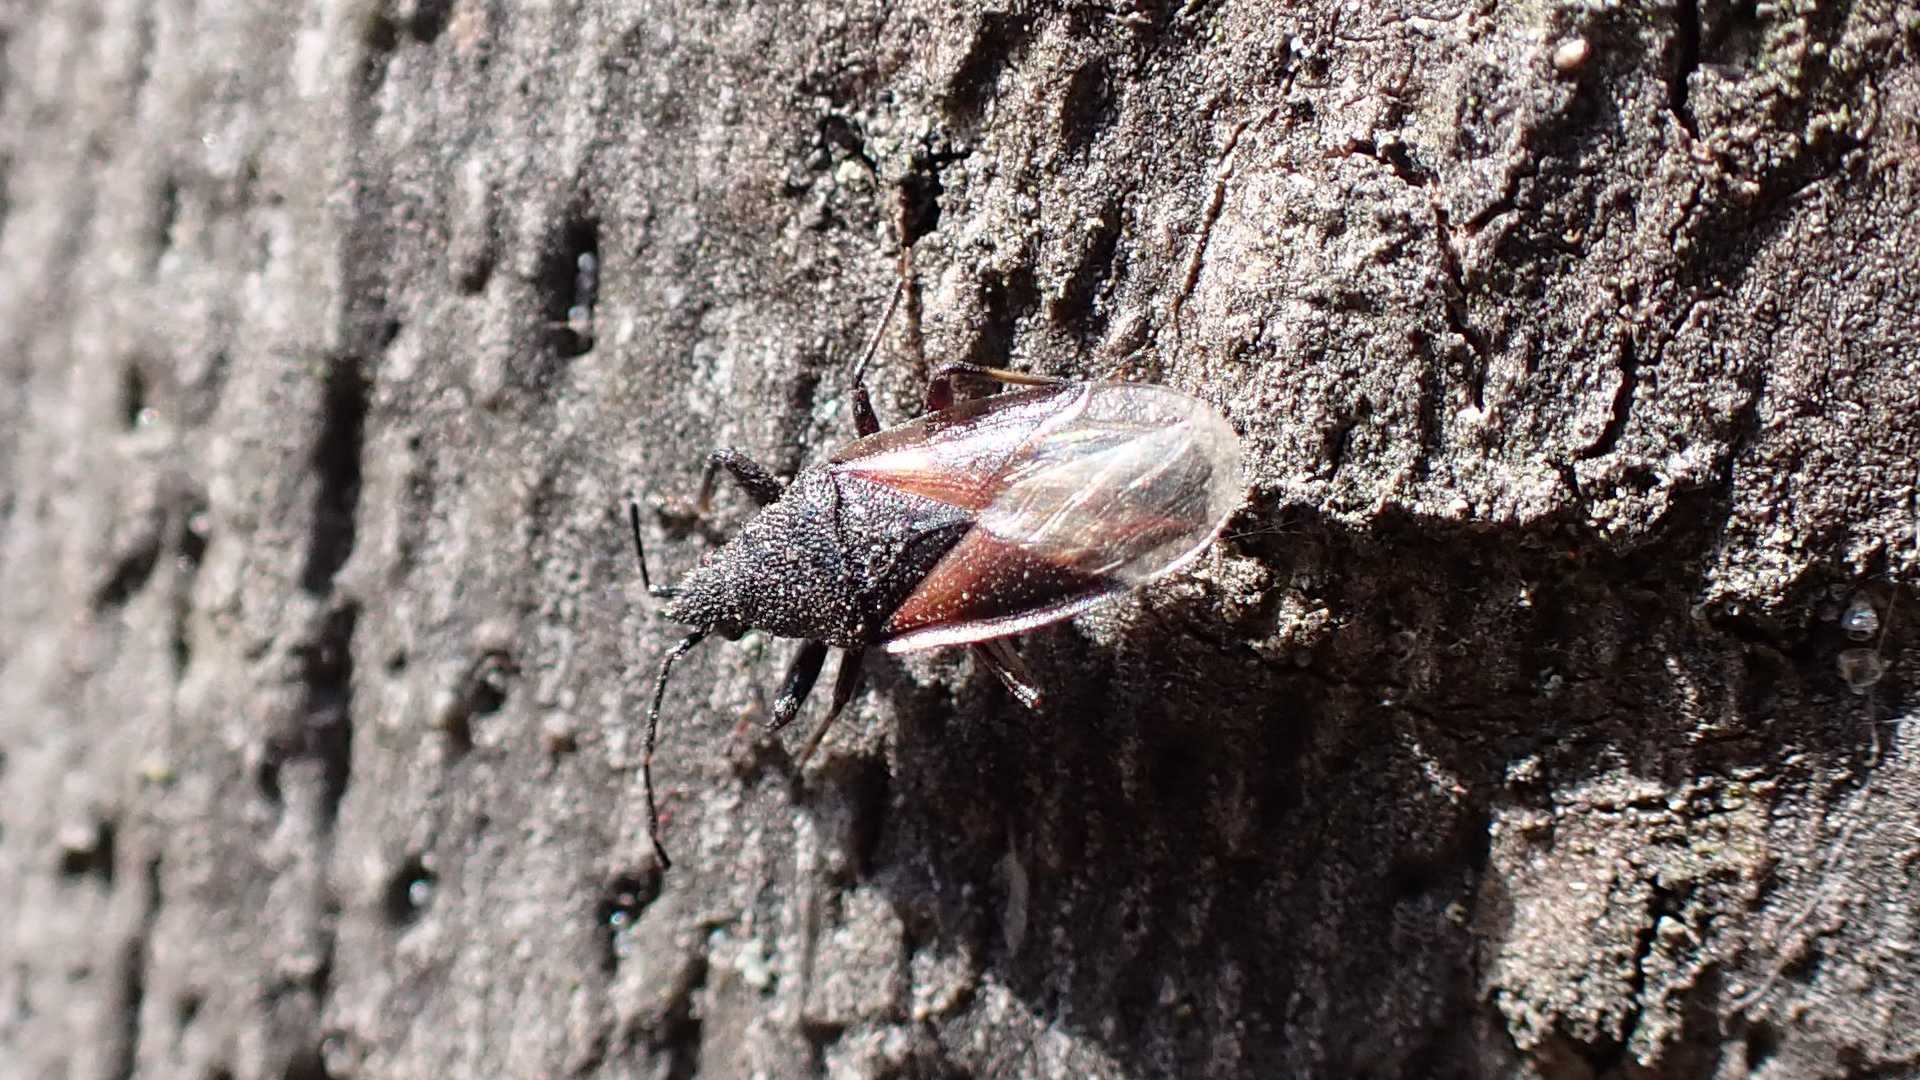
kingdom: Animalia
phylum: Arthropoda
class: Insecta
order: Hemiptera
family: Oxycarenidae
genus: Oxycarenus
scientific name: Oxycarenus lavaterae
